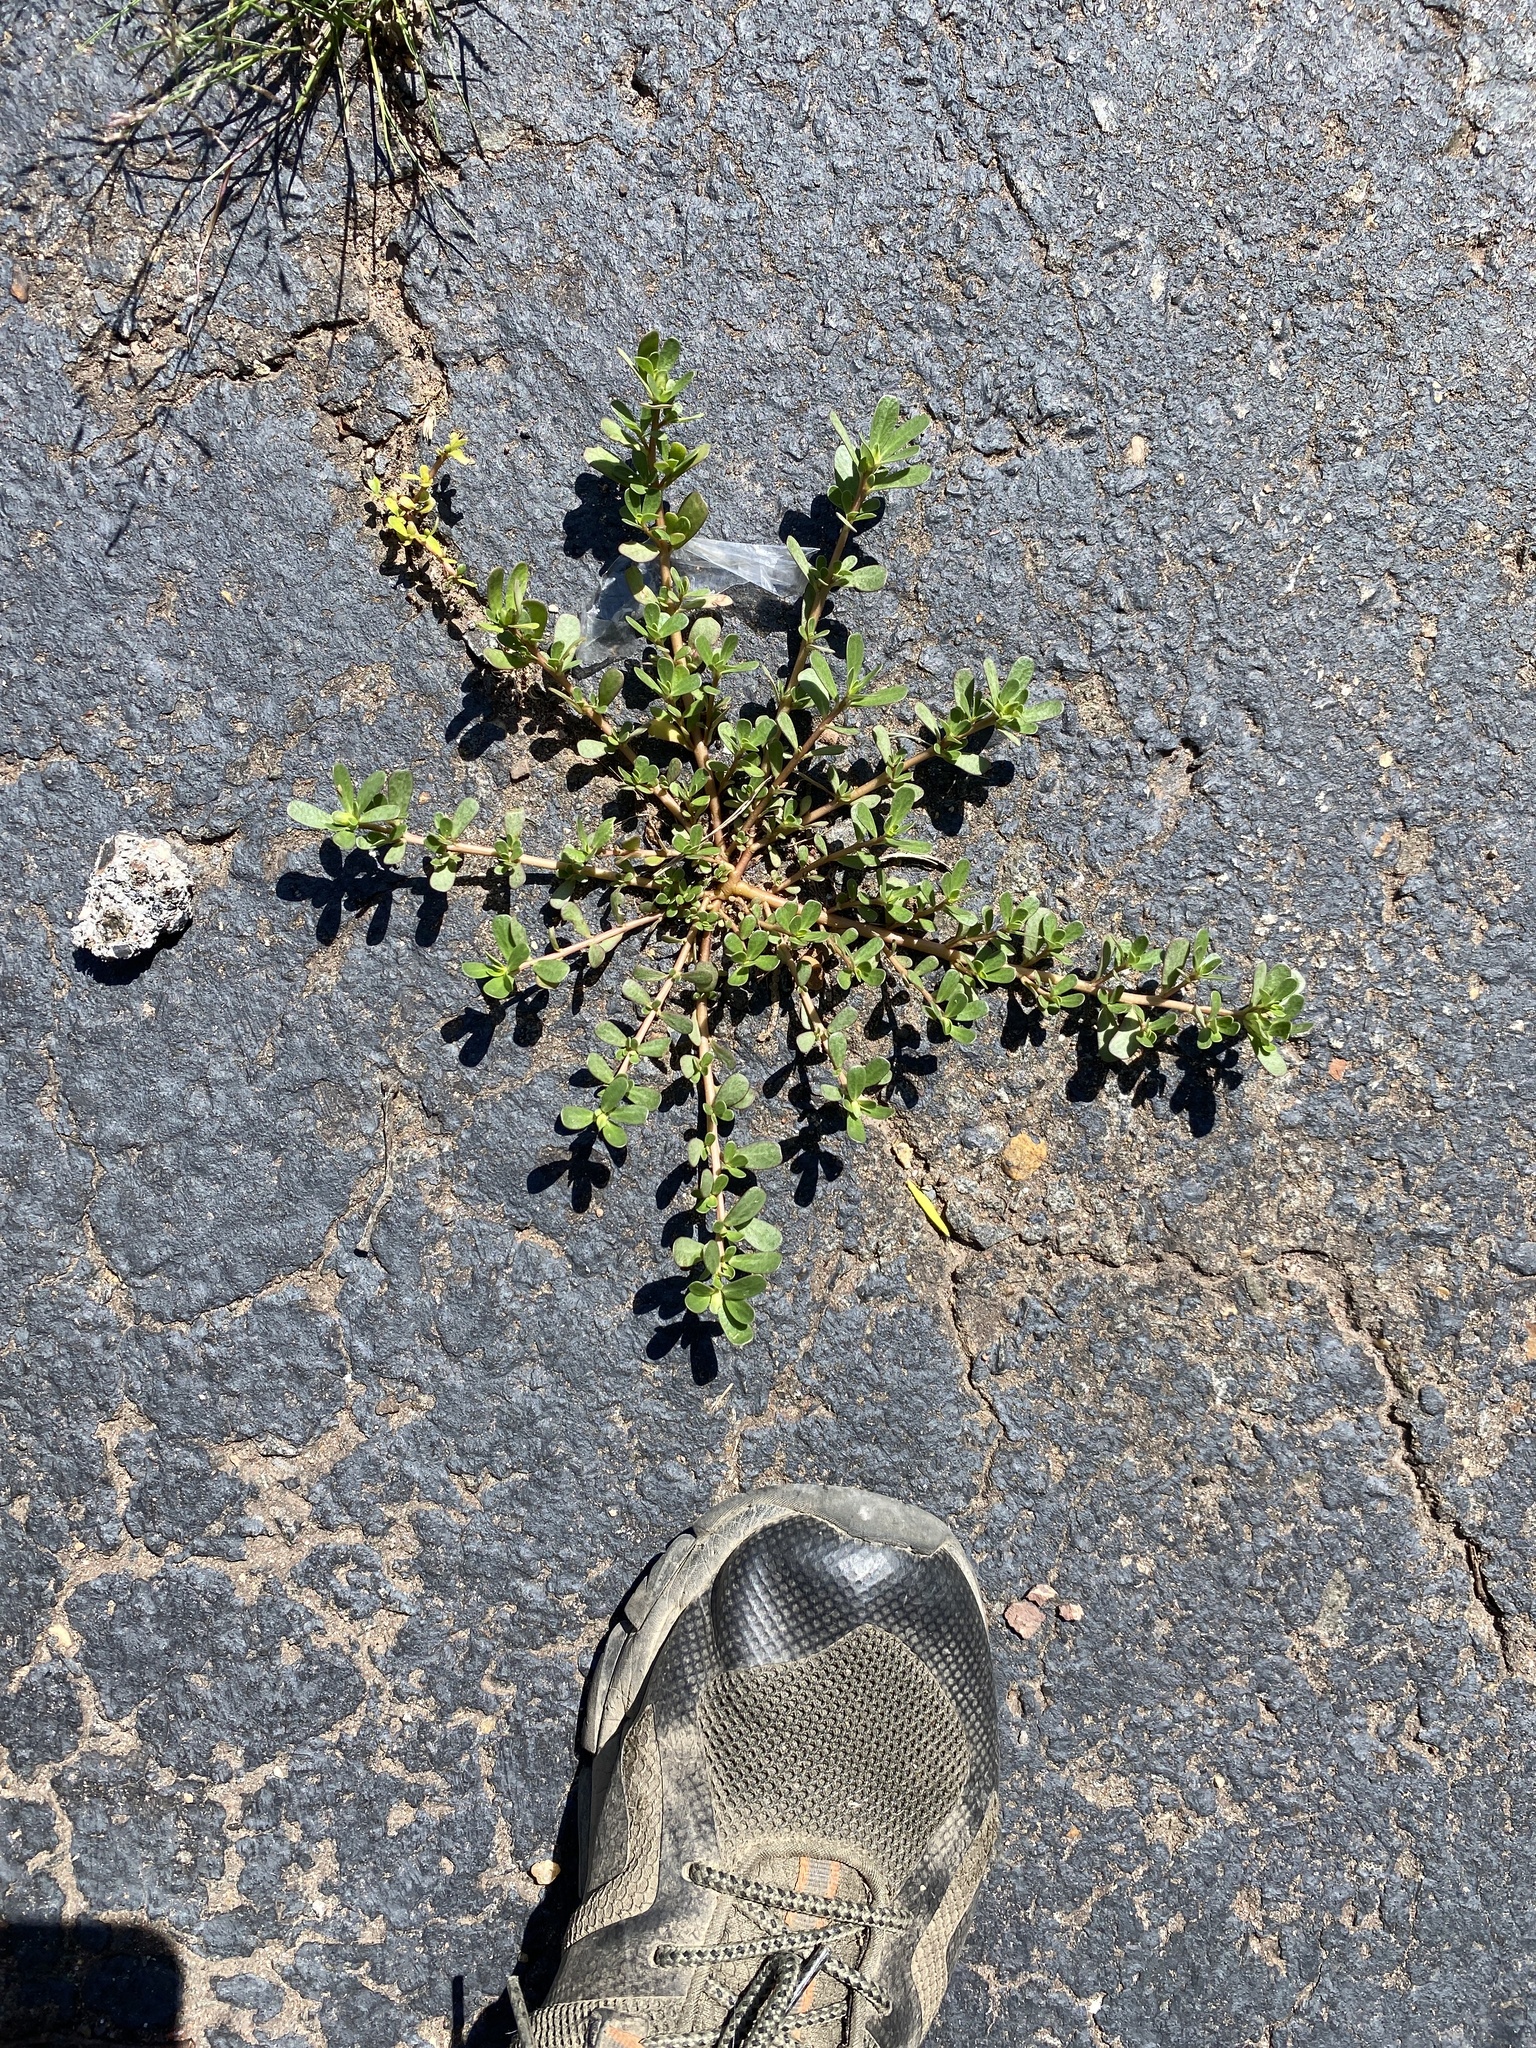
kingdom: Plantae
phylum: Tracheophyta
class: Magnoliopsida
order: Caryophyllales
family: Portulacaceae
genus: Portulaca
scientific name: Portulaca oleracea
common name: Common purslane
